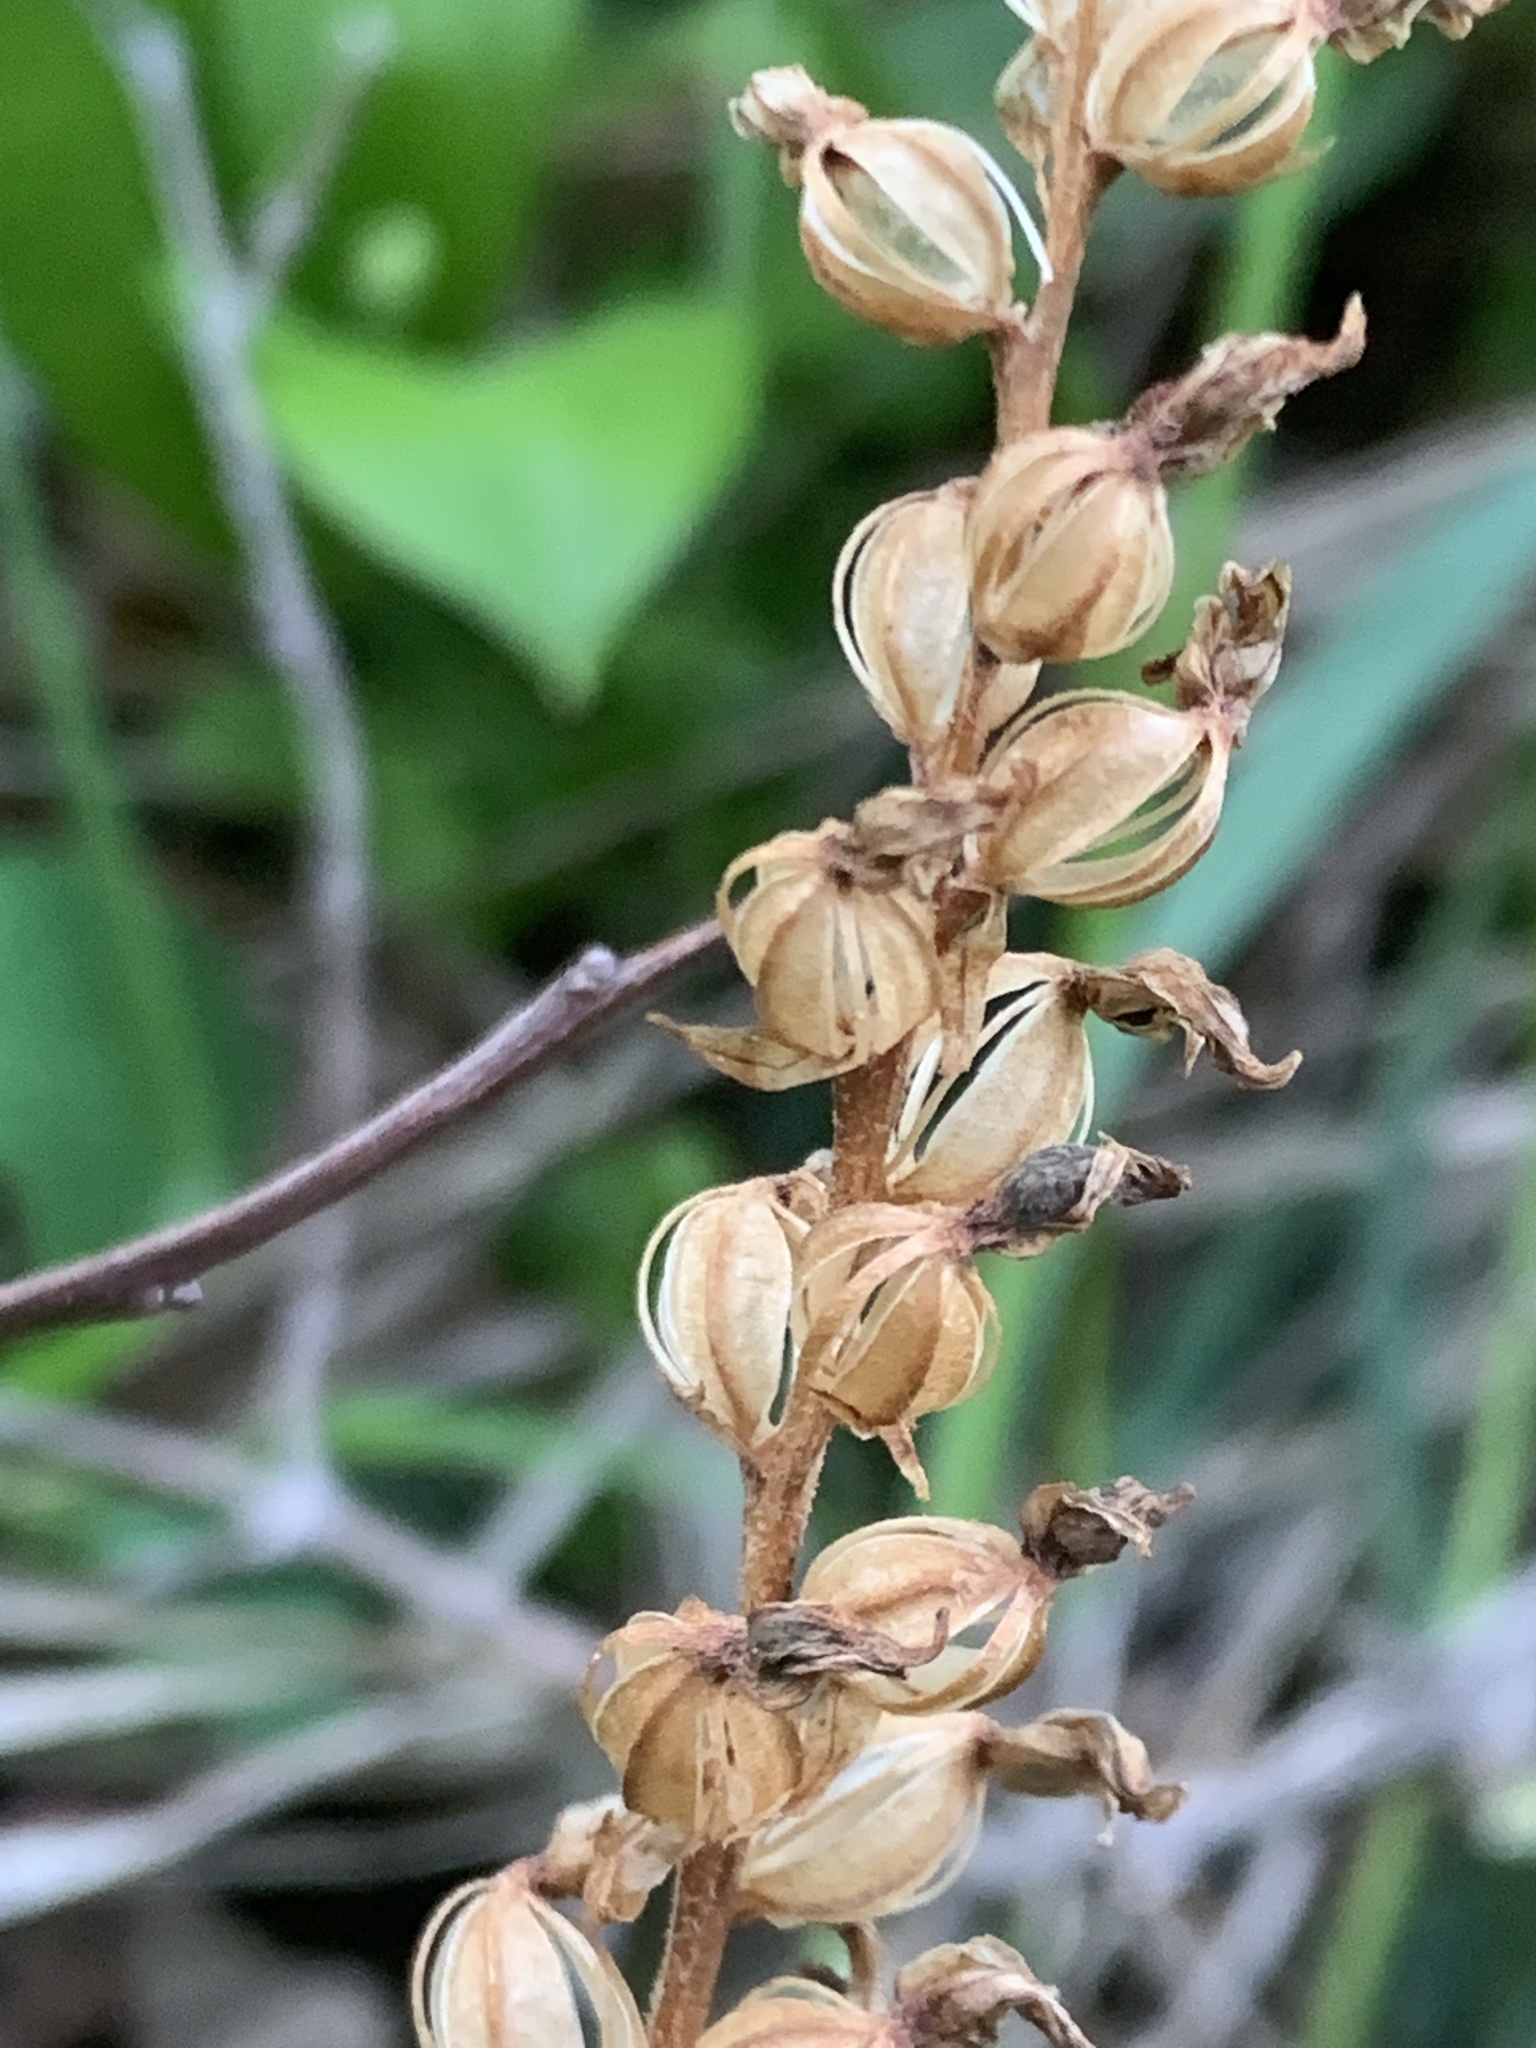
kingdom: Plantae
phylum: Tracheophyta
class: Liliopsida
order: Asparagales
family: Orchidaceae
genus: Goodyera
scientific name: Goodyera oblongifolia
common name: Giant rattlesnake-plantain
